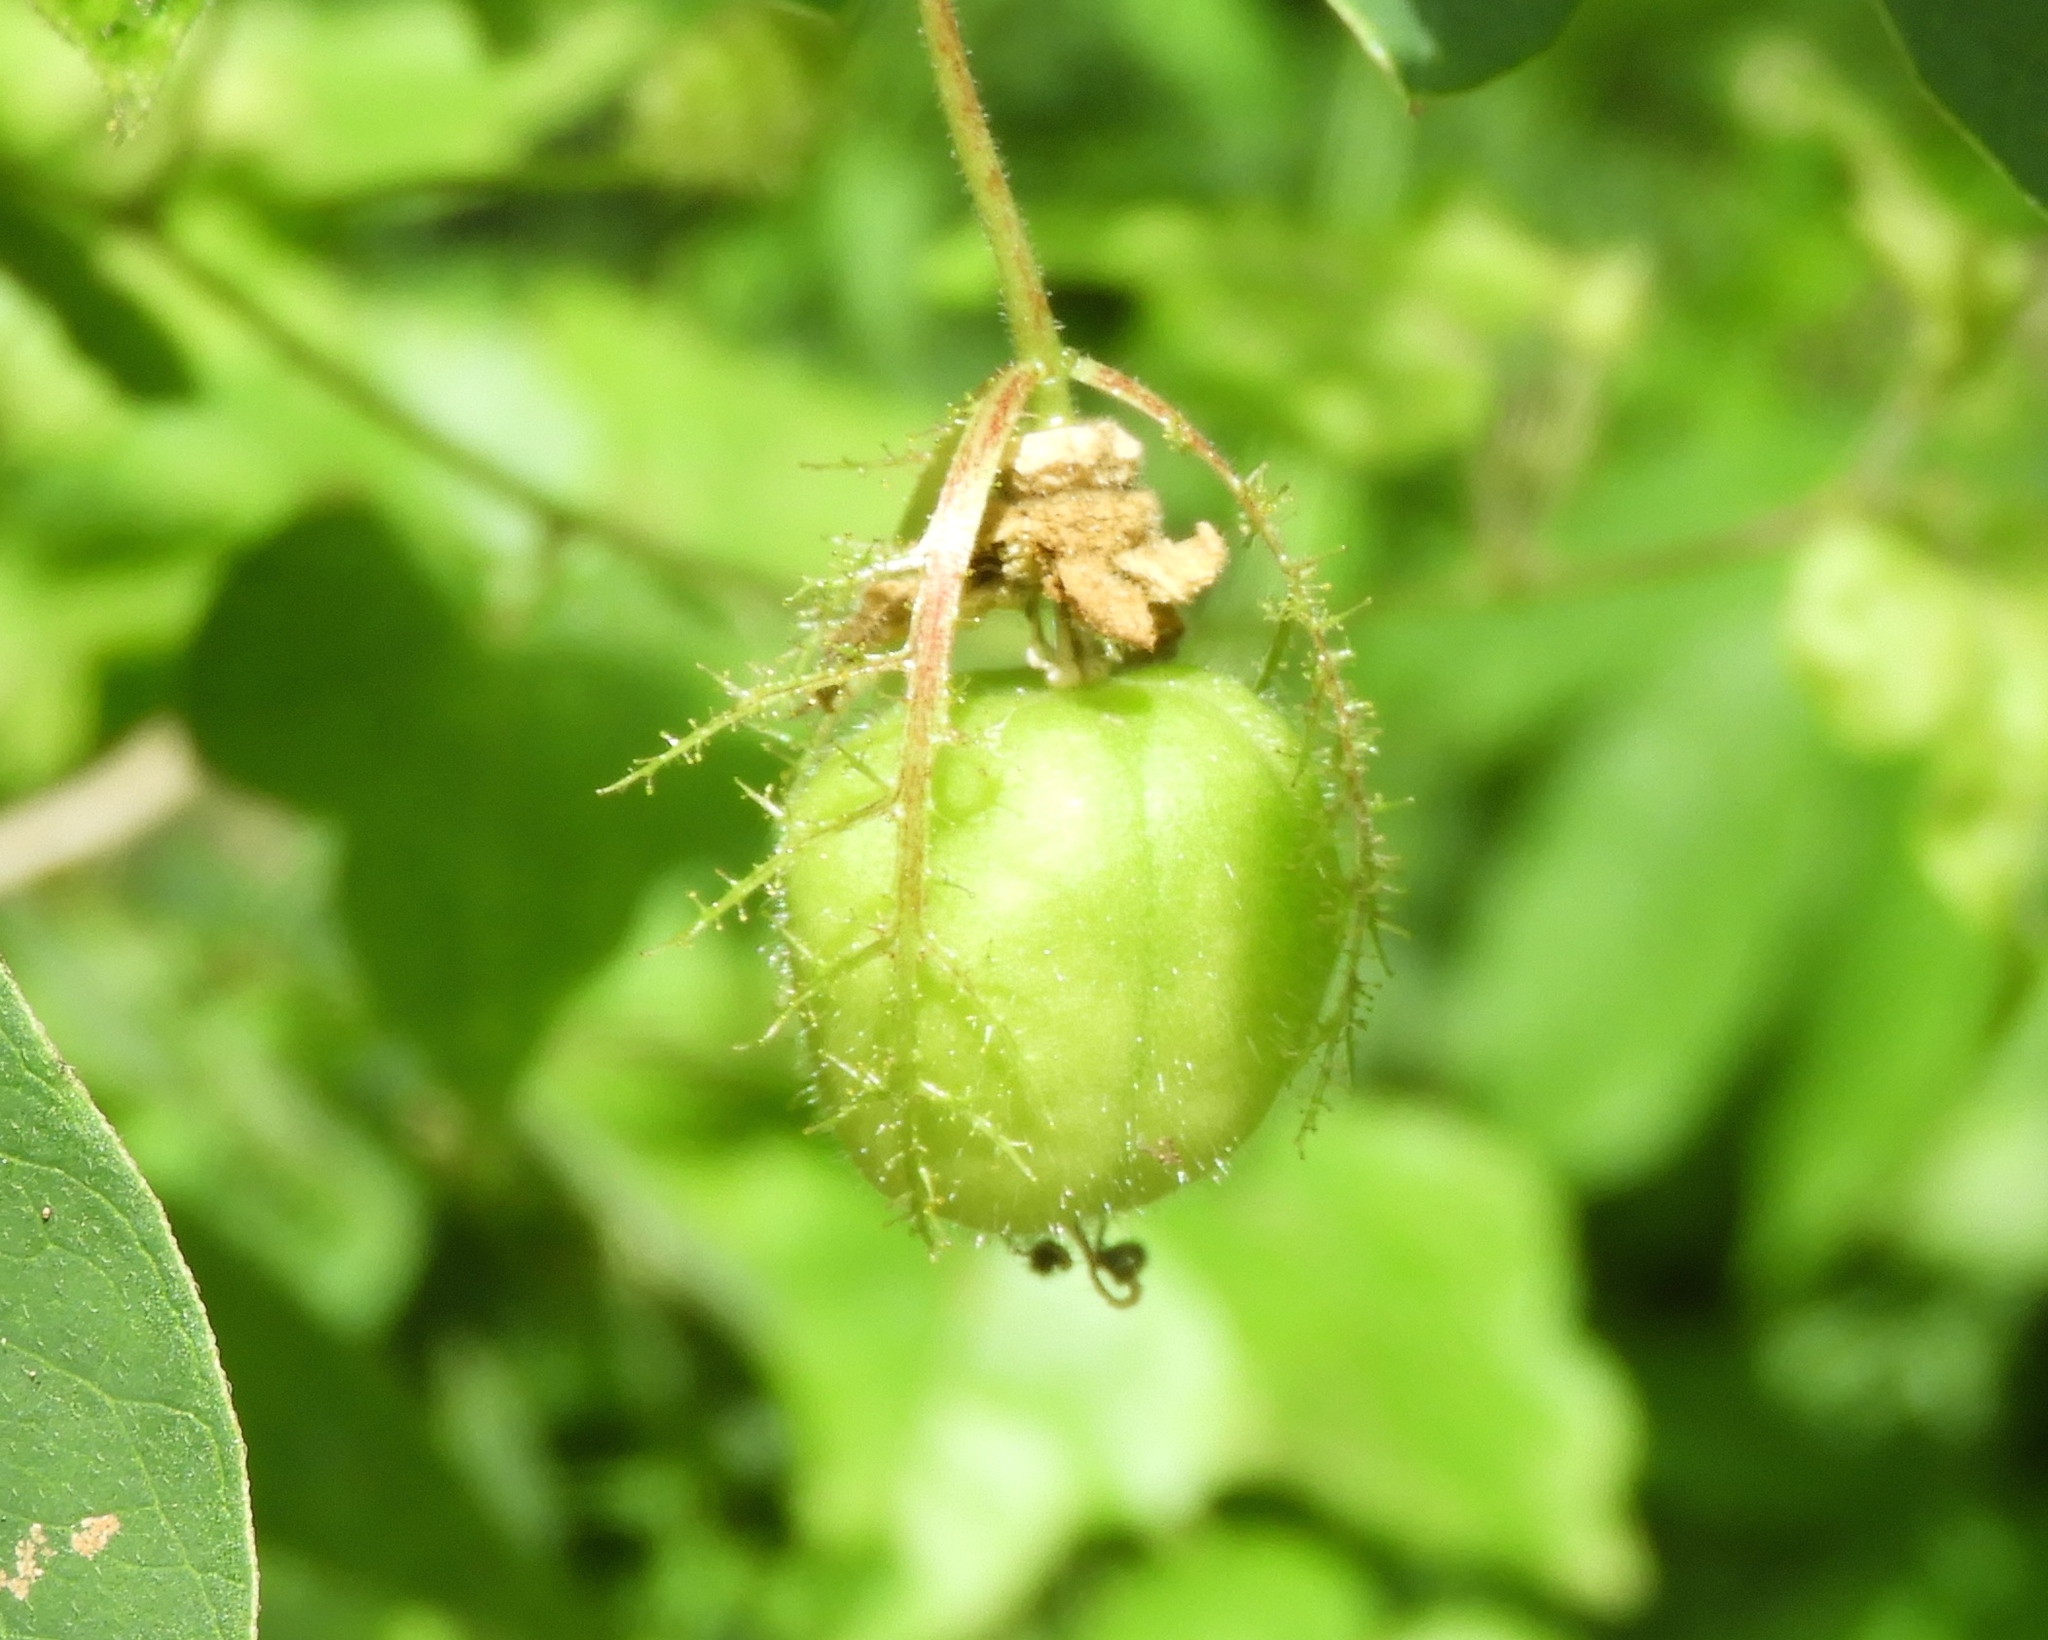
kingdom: Plantae
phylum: Tracheophyta
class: Magnoliopsida
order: Malpighiales
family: Passifloraceae
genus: Passiflora
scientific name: Passiflora foetida
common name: Fetid passionflower
